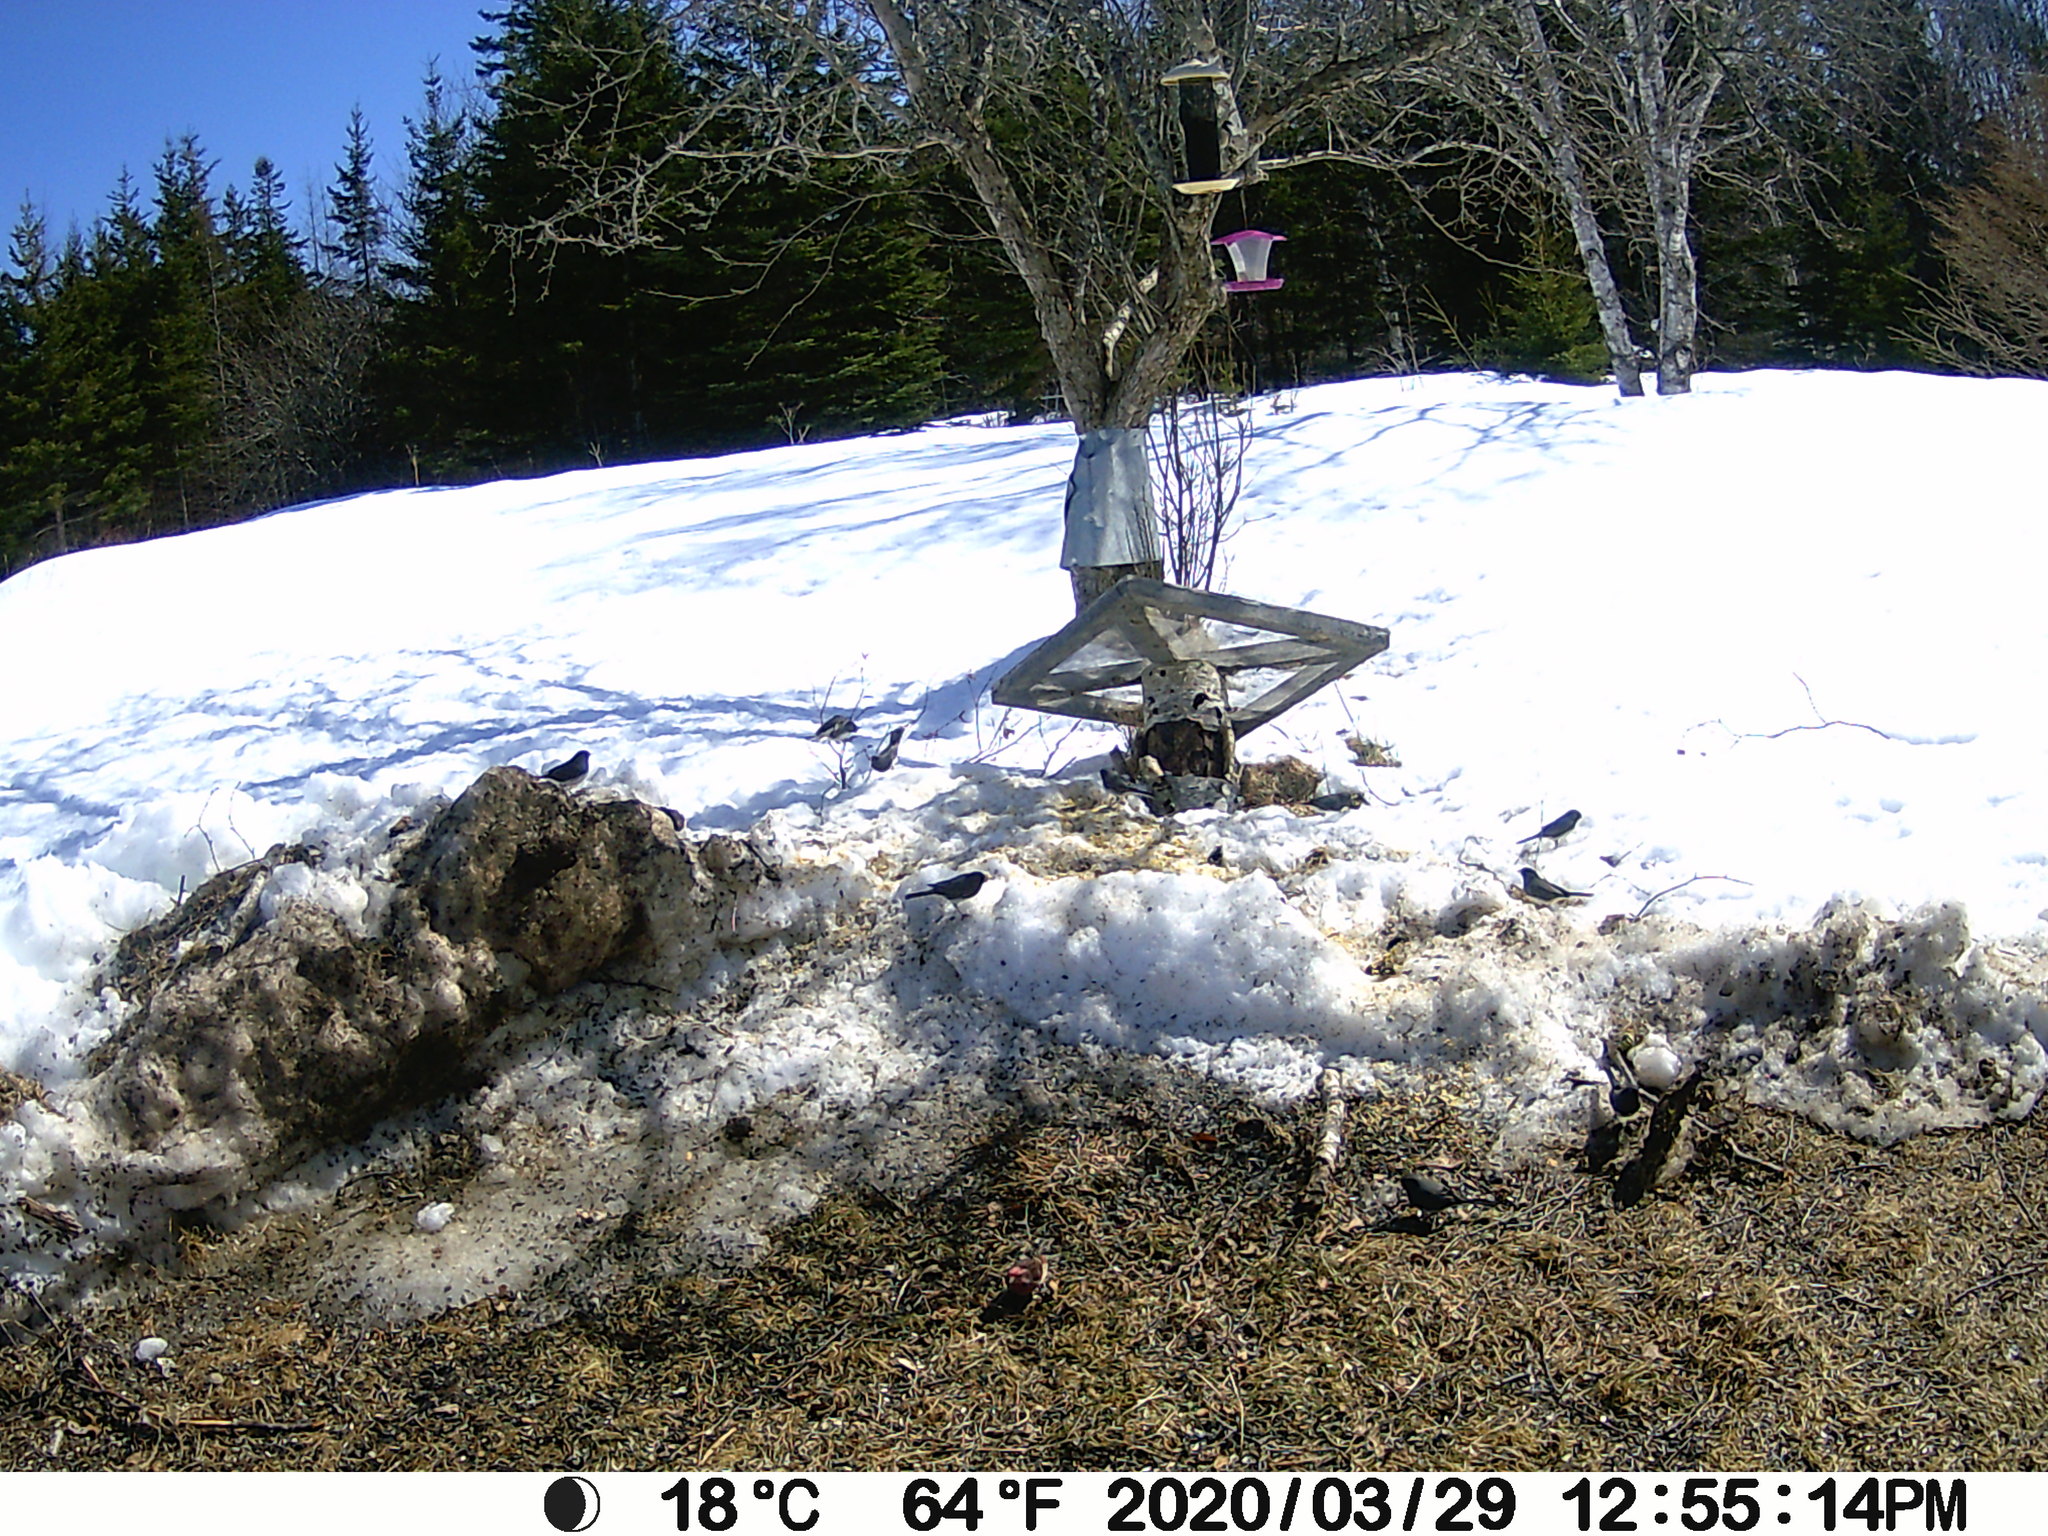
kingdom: Animalia
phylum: Chordata
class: Aves
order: Passeriformes
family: Passerellidae
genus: Junco
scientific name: Junco hyemalis
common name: Dark-eyed junco
